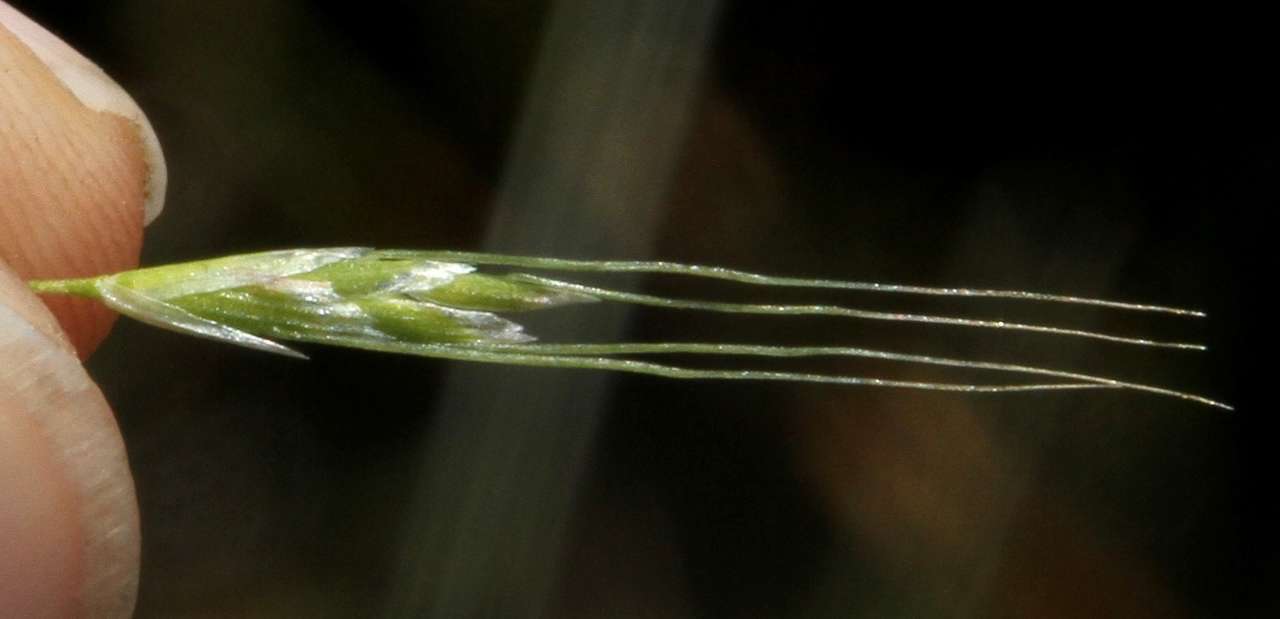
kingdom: Plantae
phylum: Tracheophyta
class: Liliopsida
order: Poales
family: Poaceae
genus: Amphibromus
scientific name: Amphibromus nervosus
